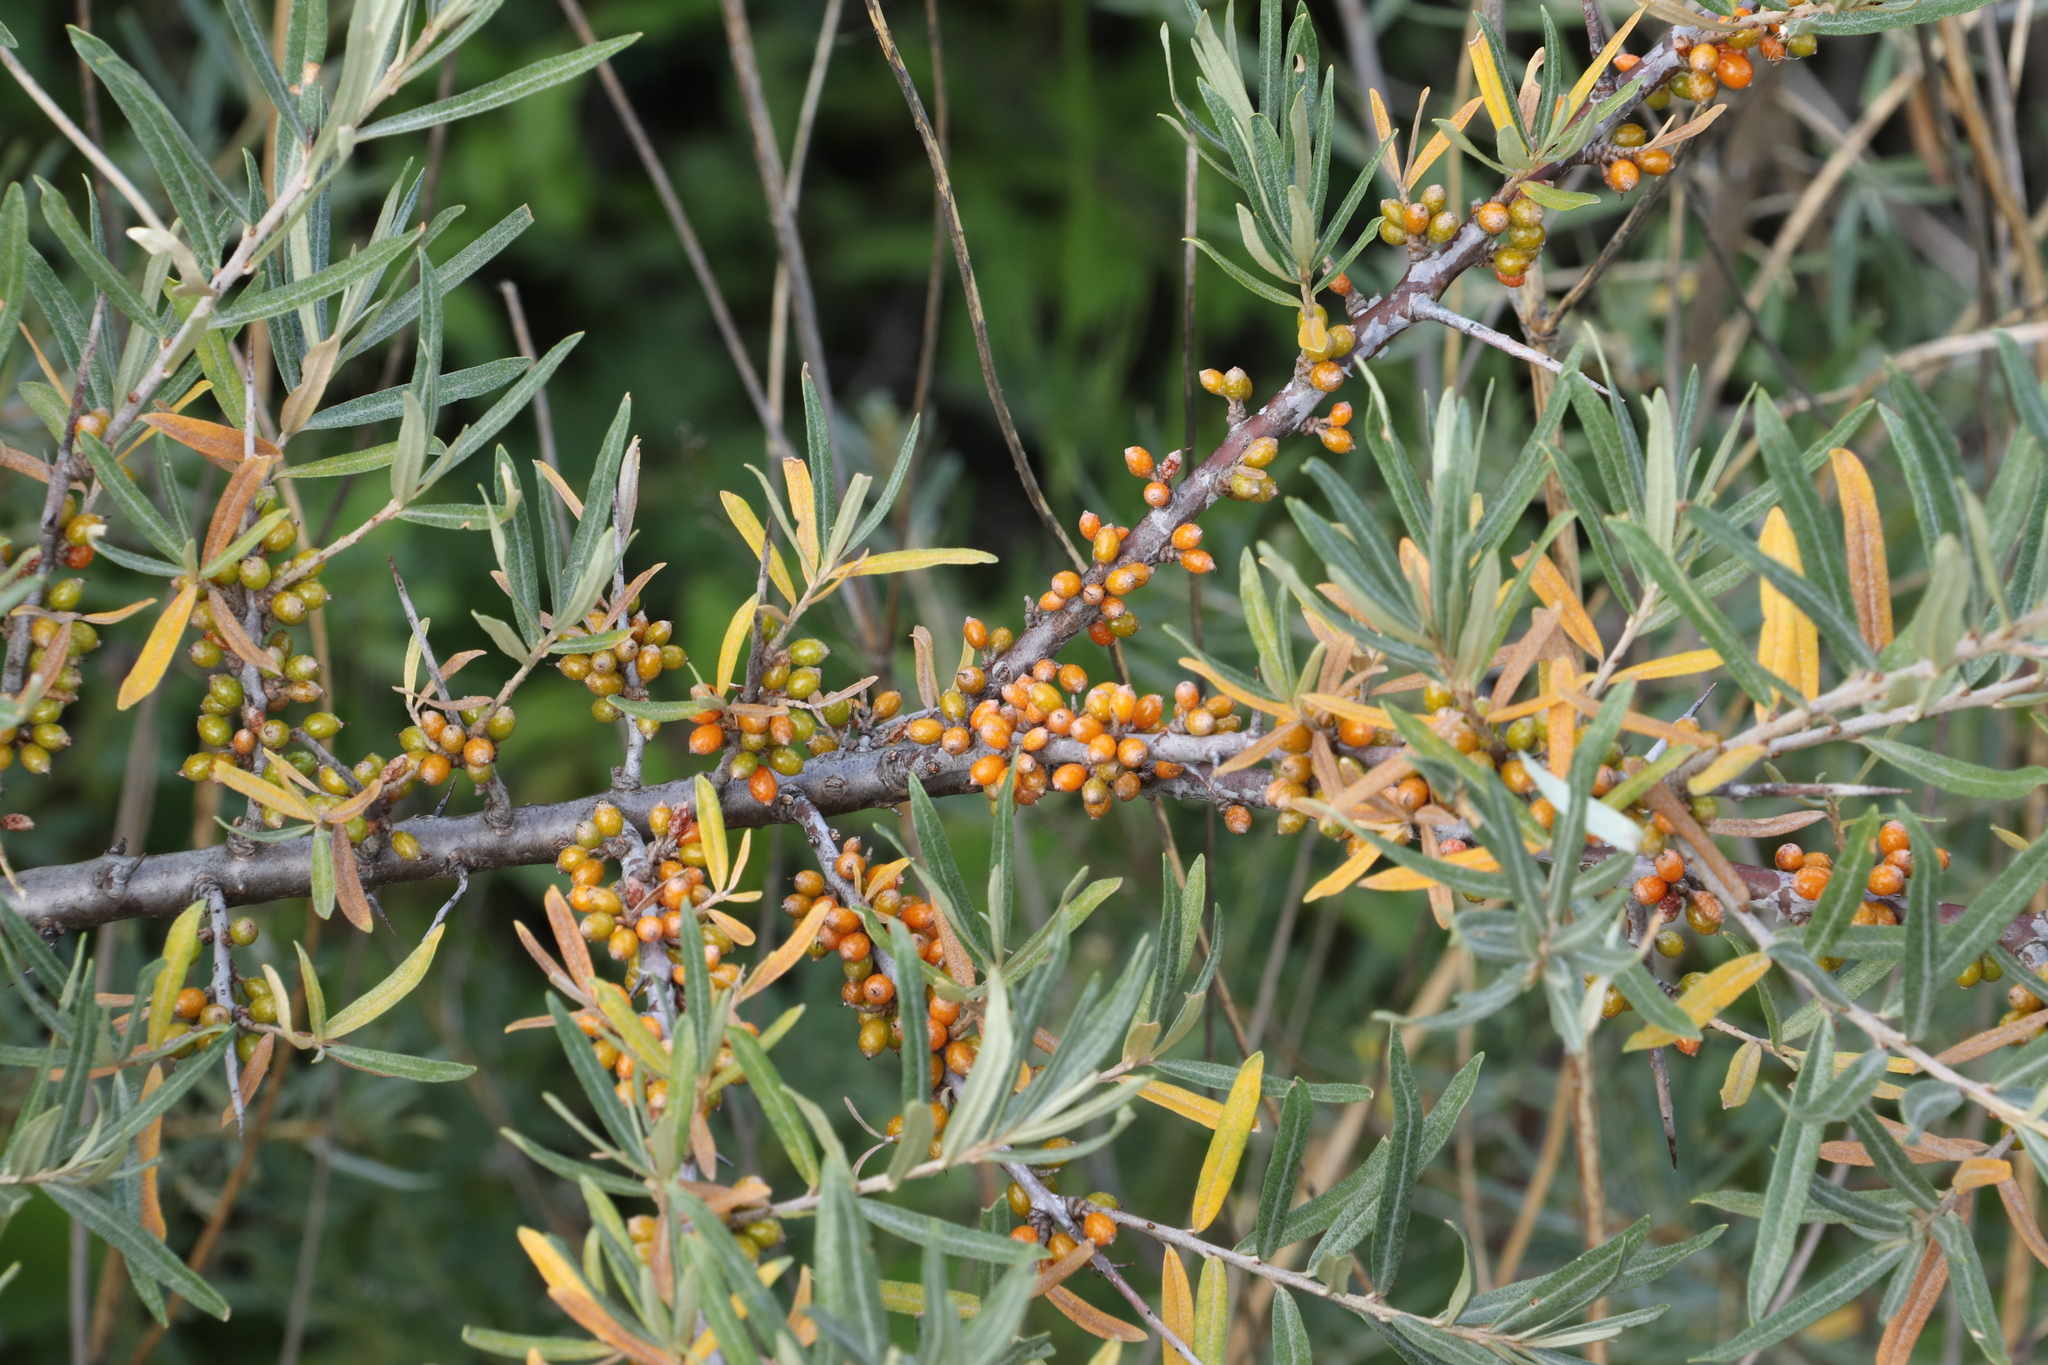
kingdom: Plantae
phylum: Tracheophyta
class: Magnoliopsida
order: Rosales
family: Elaeagnaceae
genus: Hippophae
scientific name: Hippophae rhamnoides
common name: Sea-buckthorn
